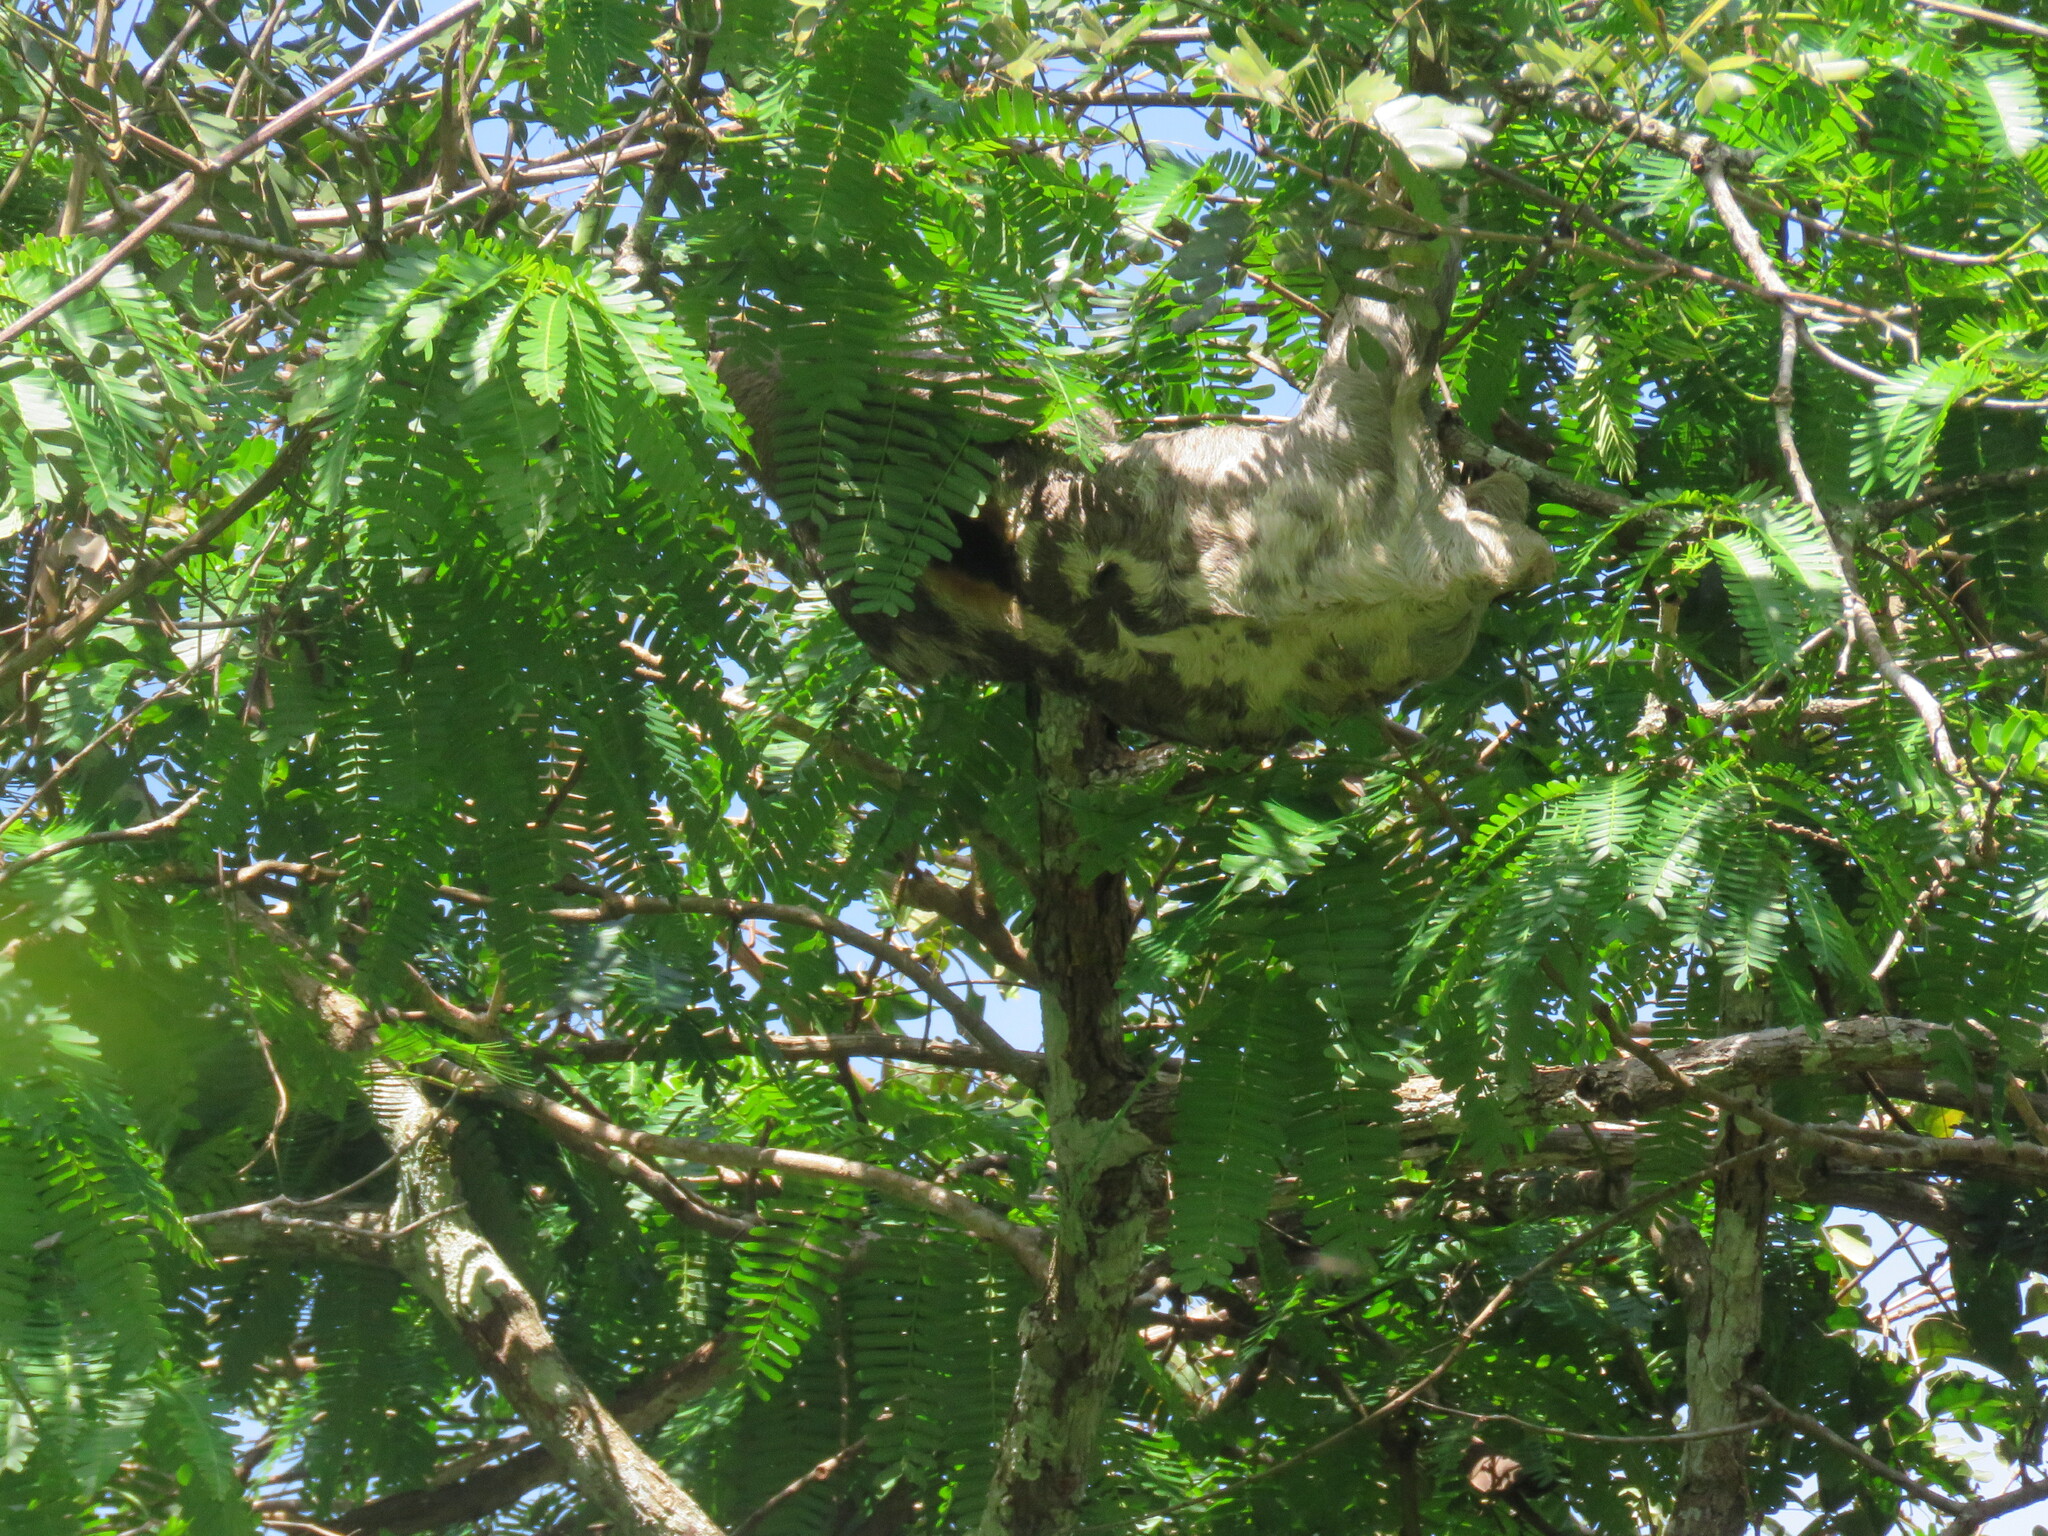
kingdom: Animalia
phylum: Chordata
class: Mammalia
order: Pilosa
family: Bradypodidae
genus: Bradypus
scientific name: Bradypus variegatus
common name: Brown-throated three-toed sloth
